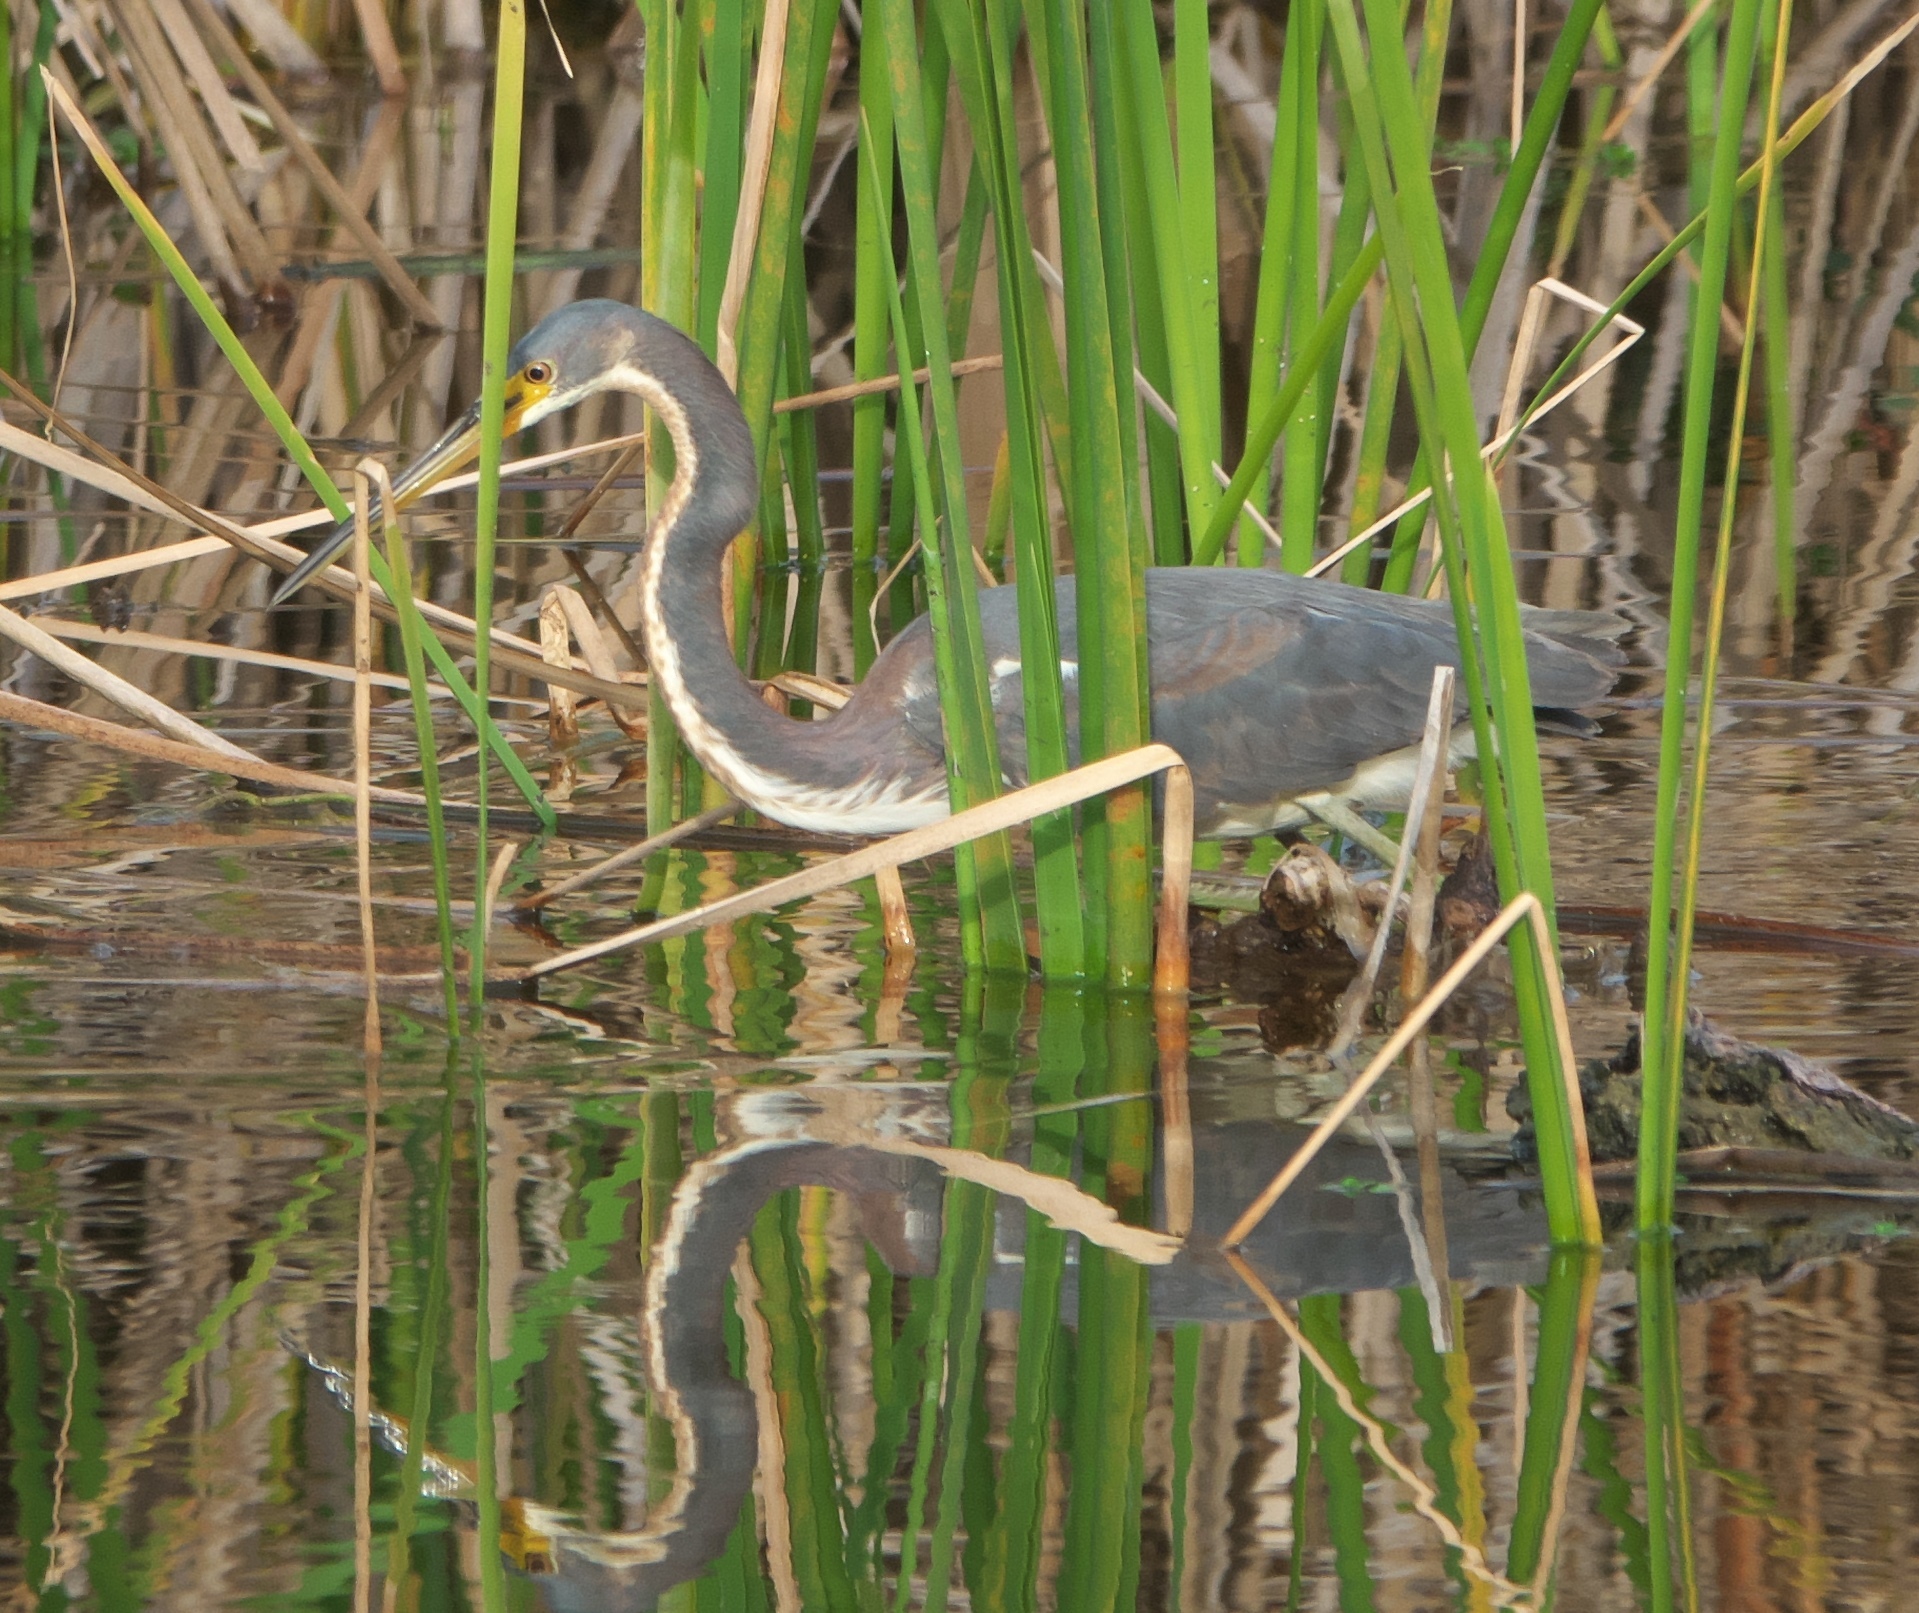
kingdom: Animalia
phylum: Chordata
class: Aves
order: Pelecaniformes
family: Ardeidae
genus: Egretta
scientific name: Egretta tricolor
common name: Tricolored heron
